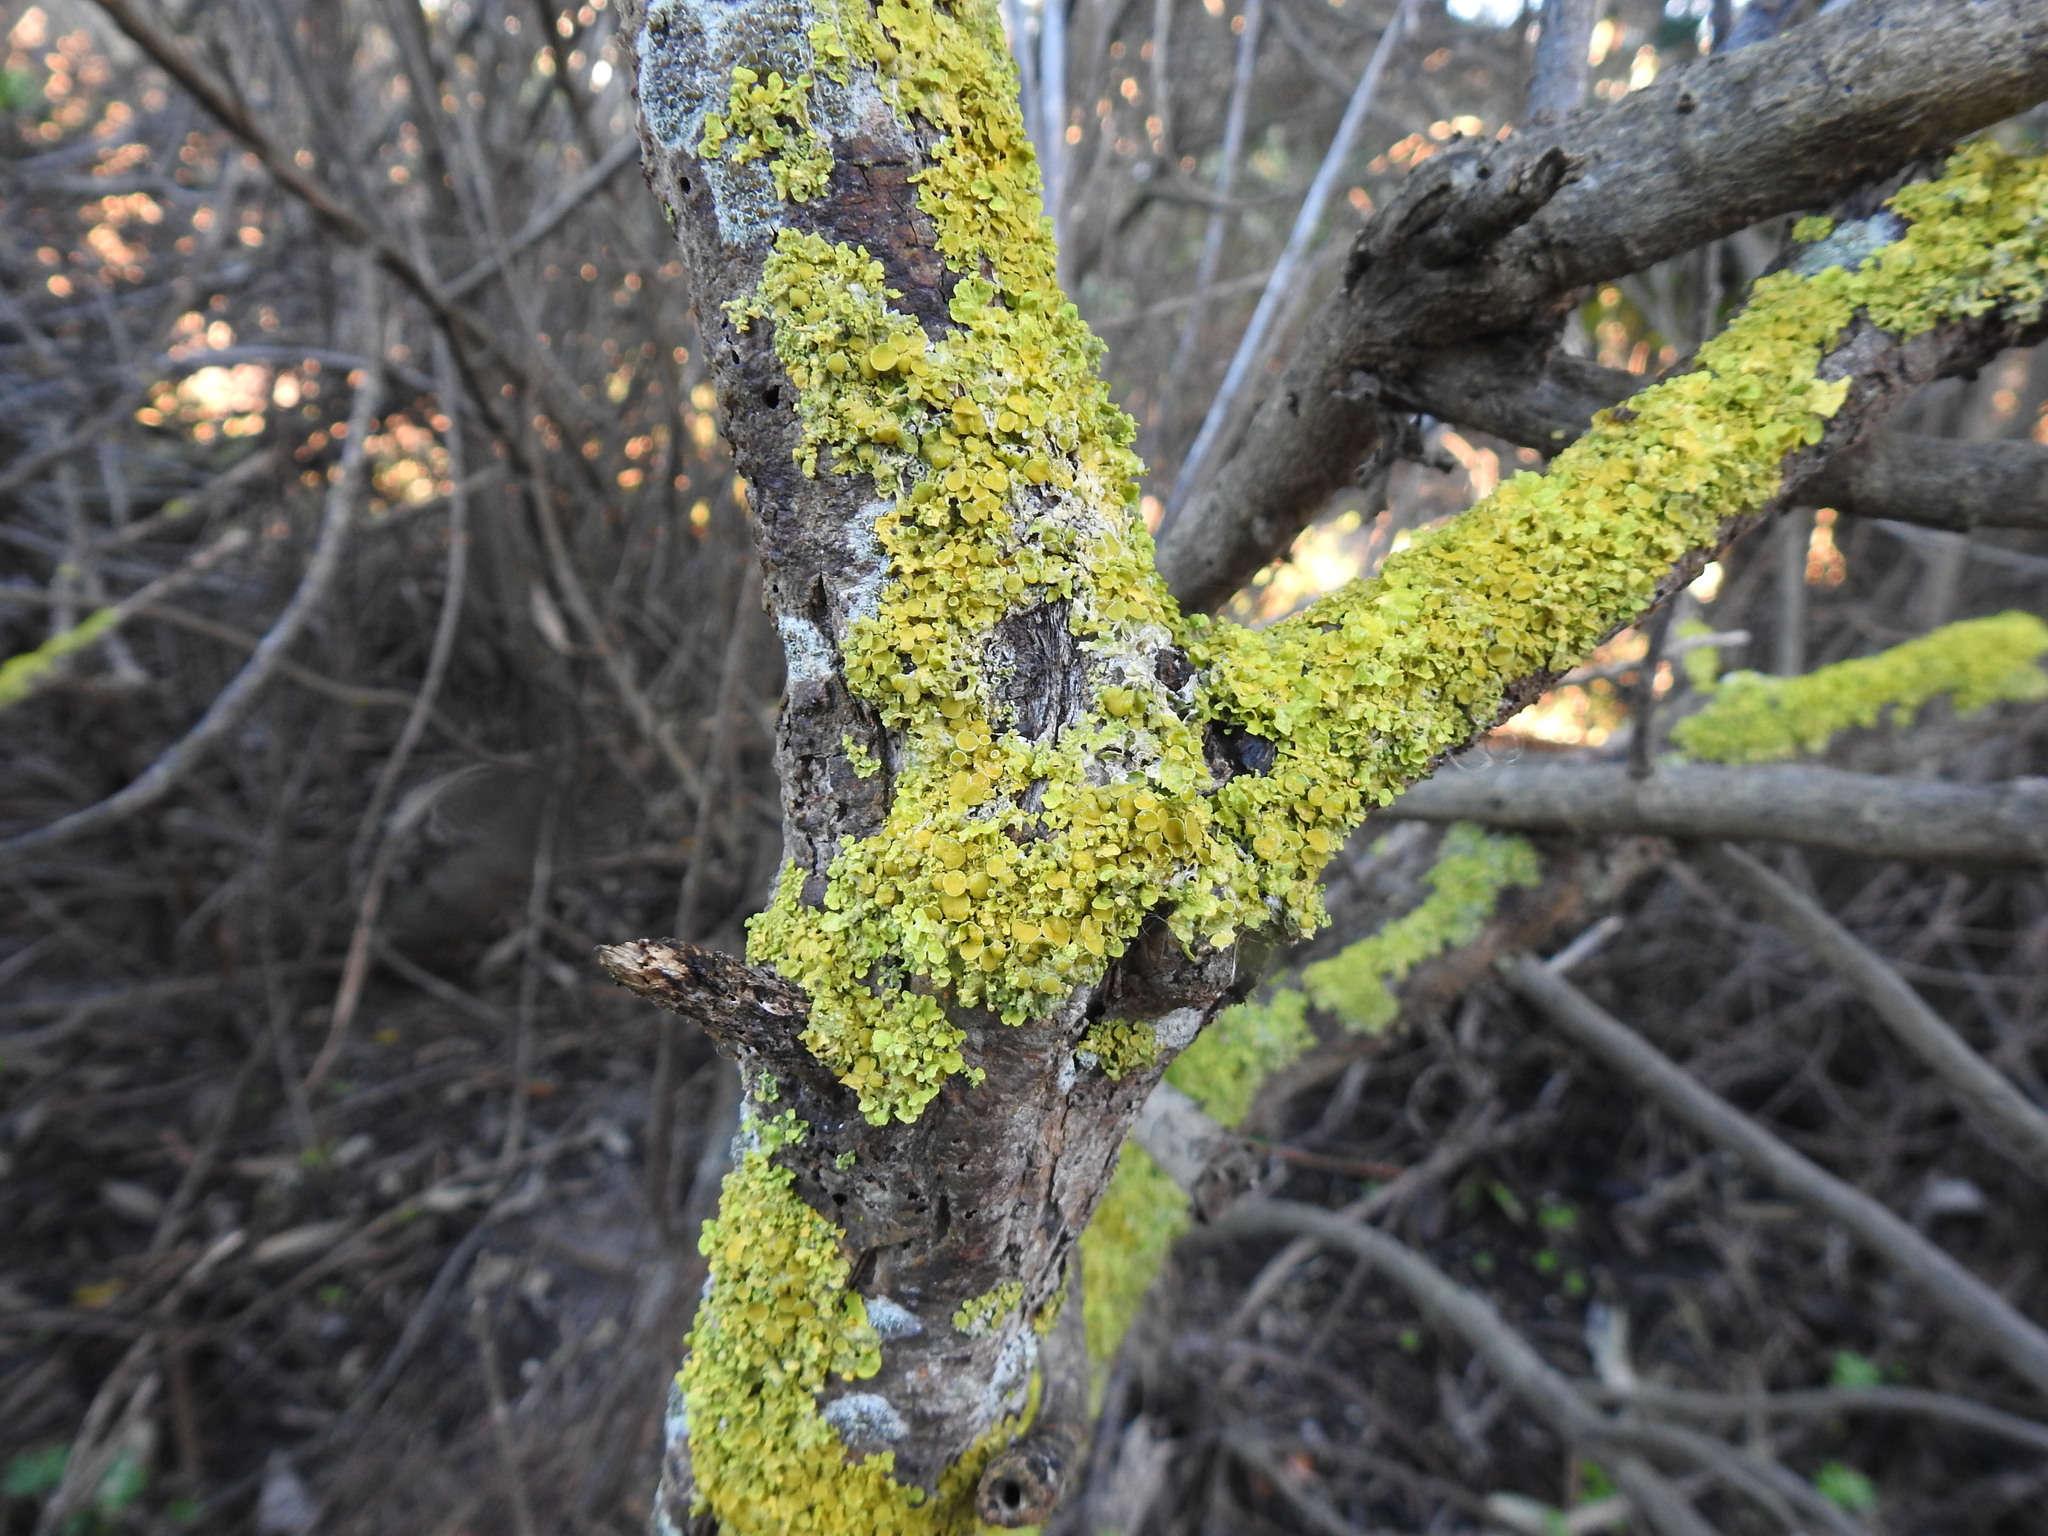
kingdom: Fungi
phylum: Ascomycota
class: Lecanoromycetes
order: Teloschistales
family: Teloschistaceae
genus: Xanthoria
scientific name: Xanthoria parietina
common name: Common orange lichen
